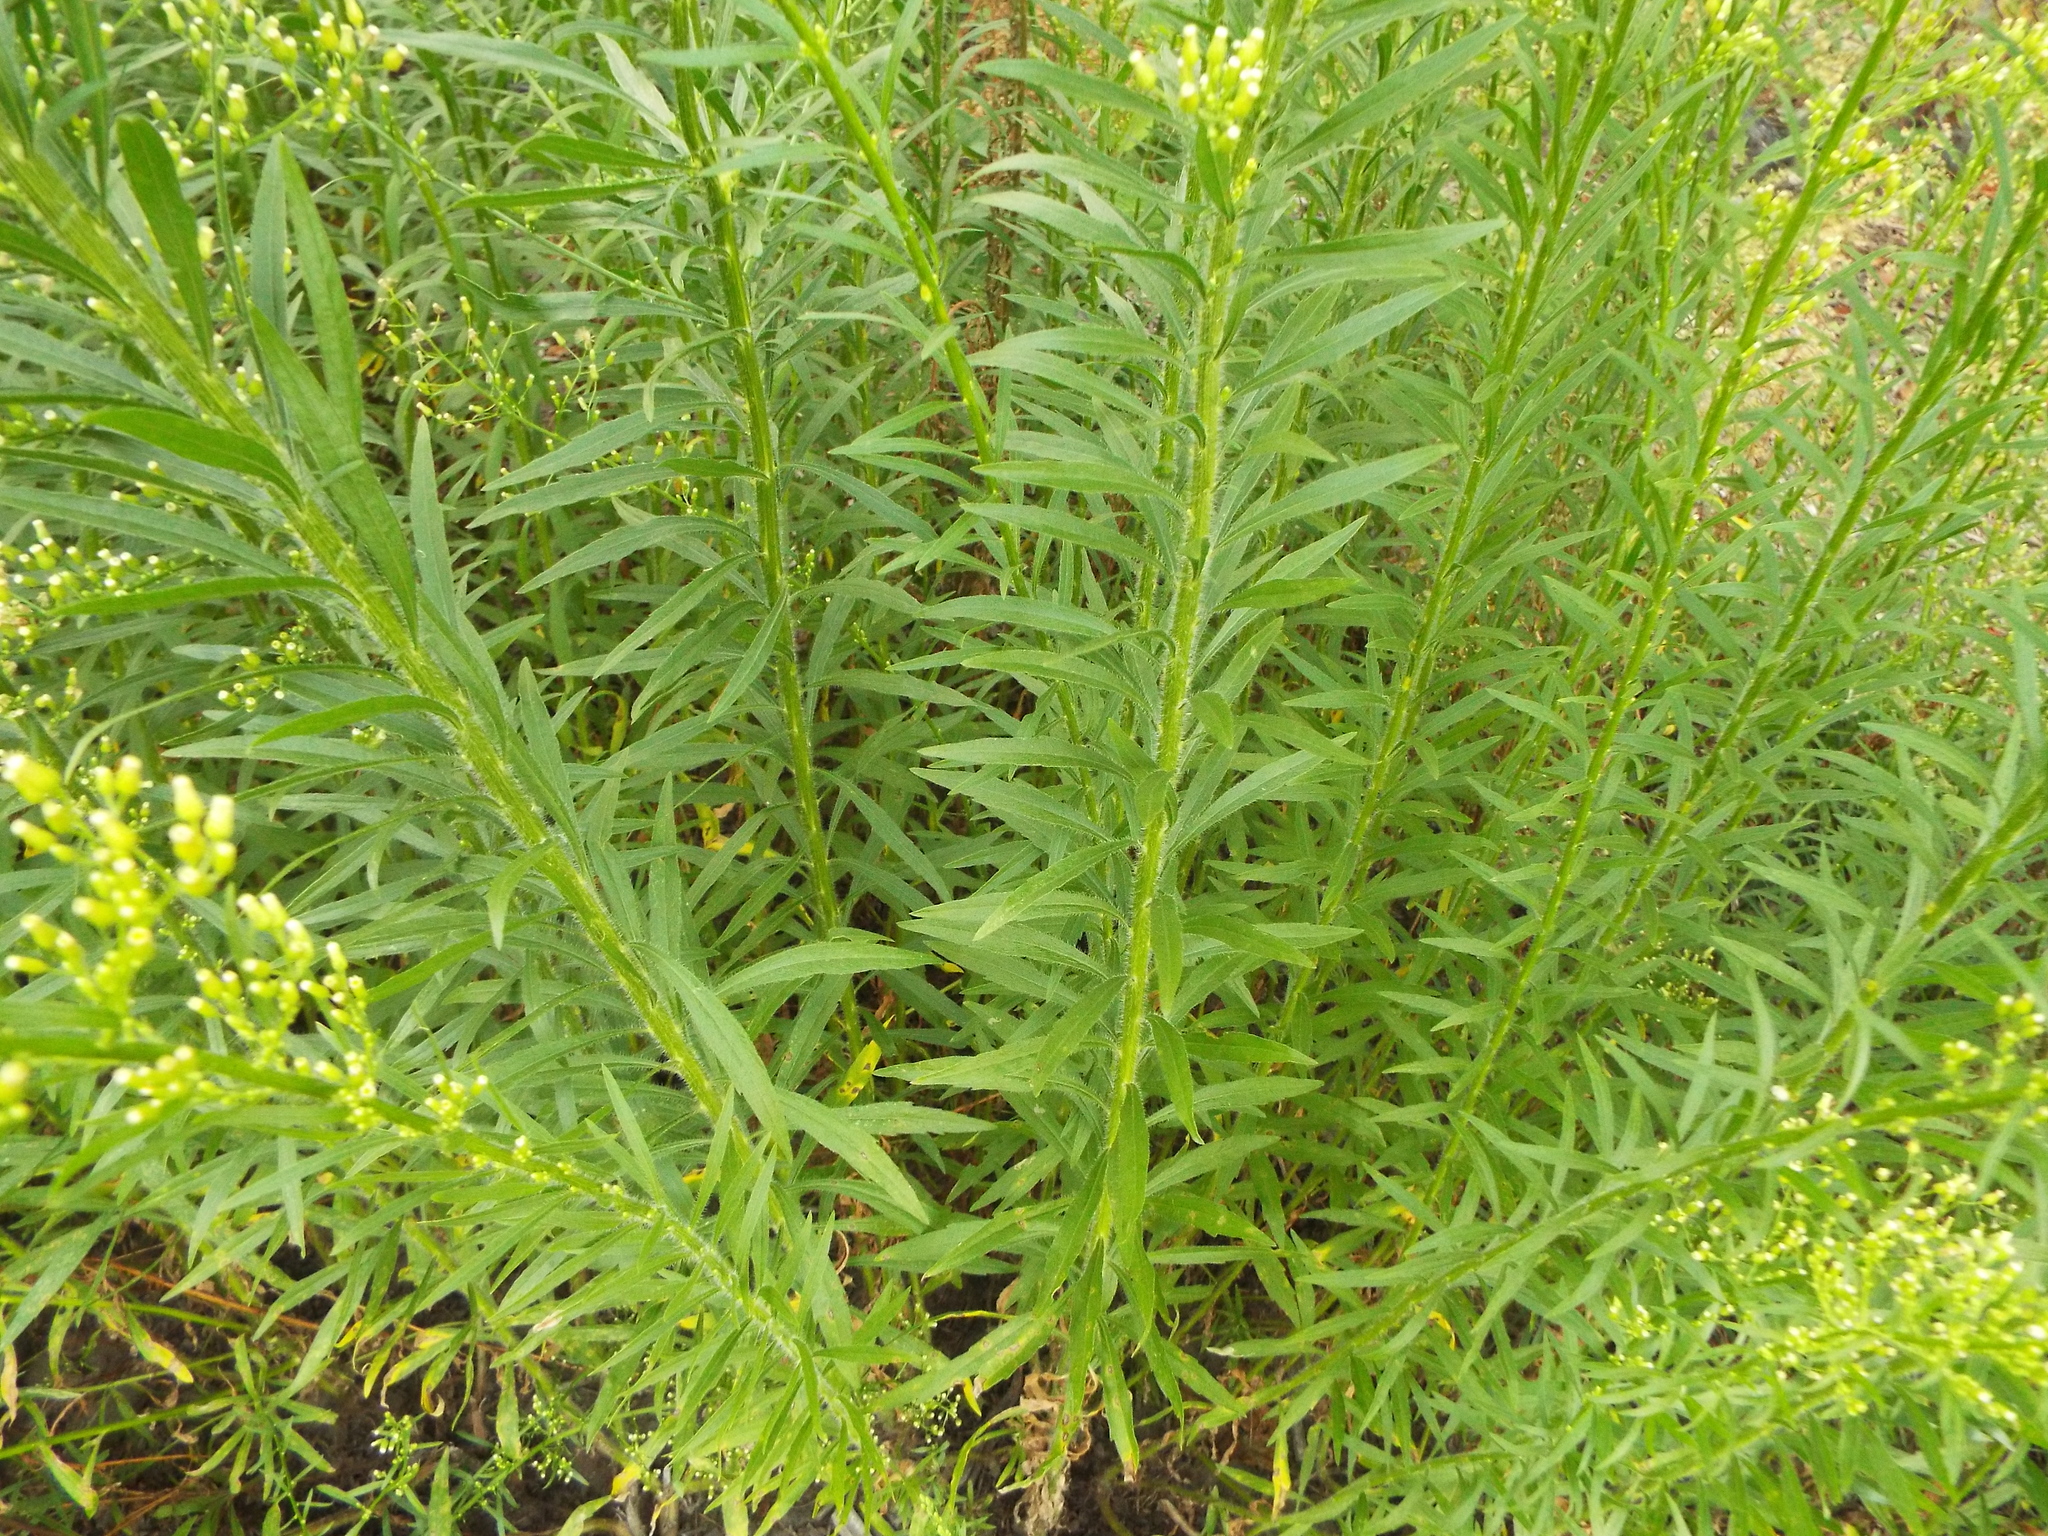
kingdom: Plantae
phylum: Tracheophyta
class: Magnoliopsida
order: Asterales
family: Asteraceae
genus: Erigeron
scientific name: Erigeron canadensis
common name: Canadian fleabane
